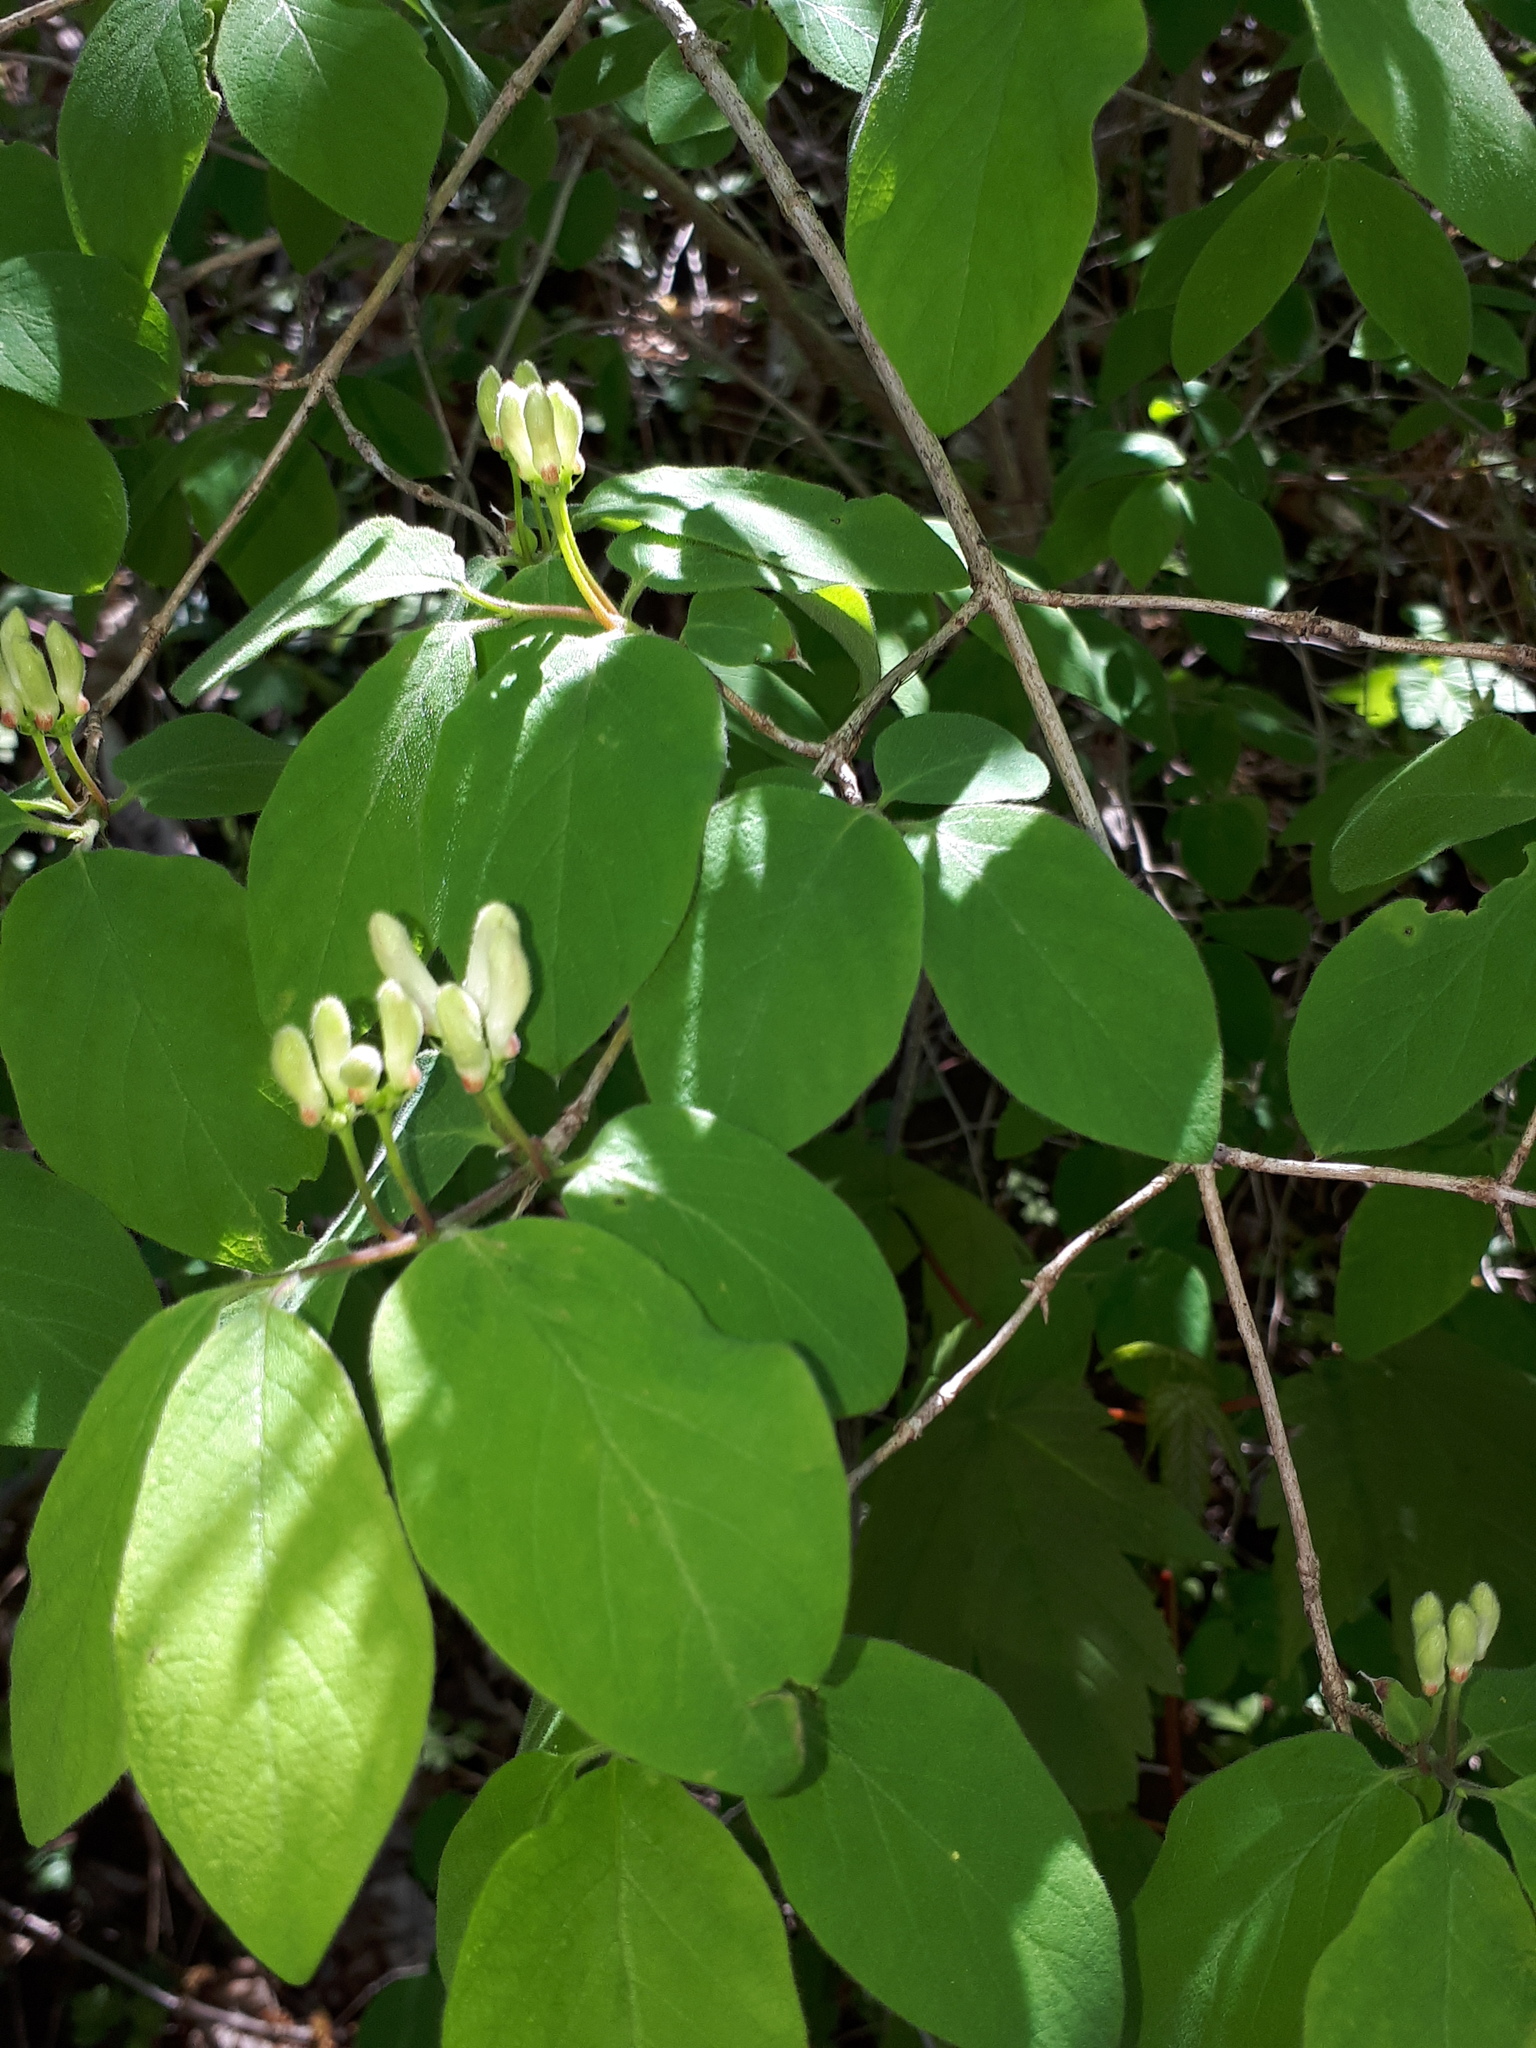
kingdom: Plantae
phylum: Tracheophyta
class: Magnoliopsida
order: Dipsacales
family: Caprifoliaceae
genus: Lonicera
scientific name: Lonicera xylosteum
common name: Fly honeysuckle
